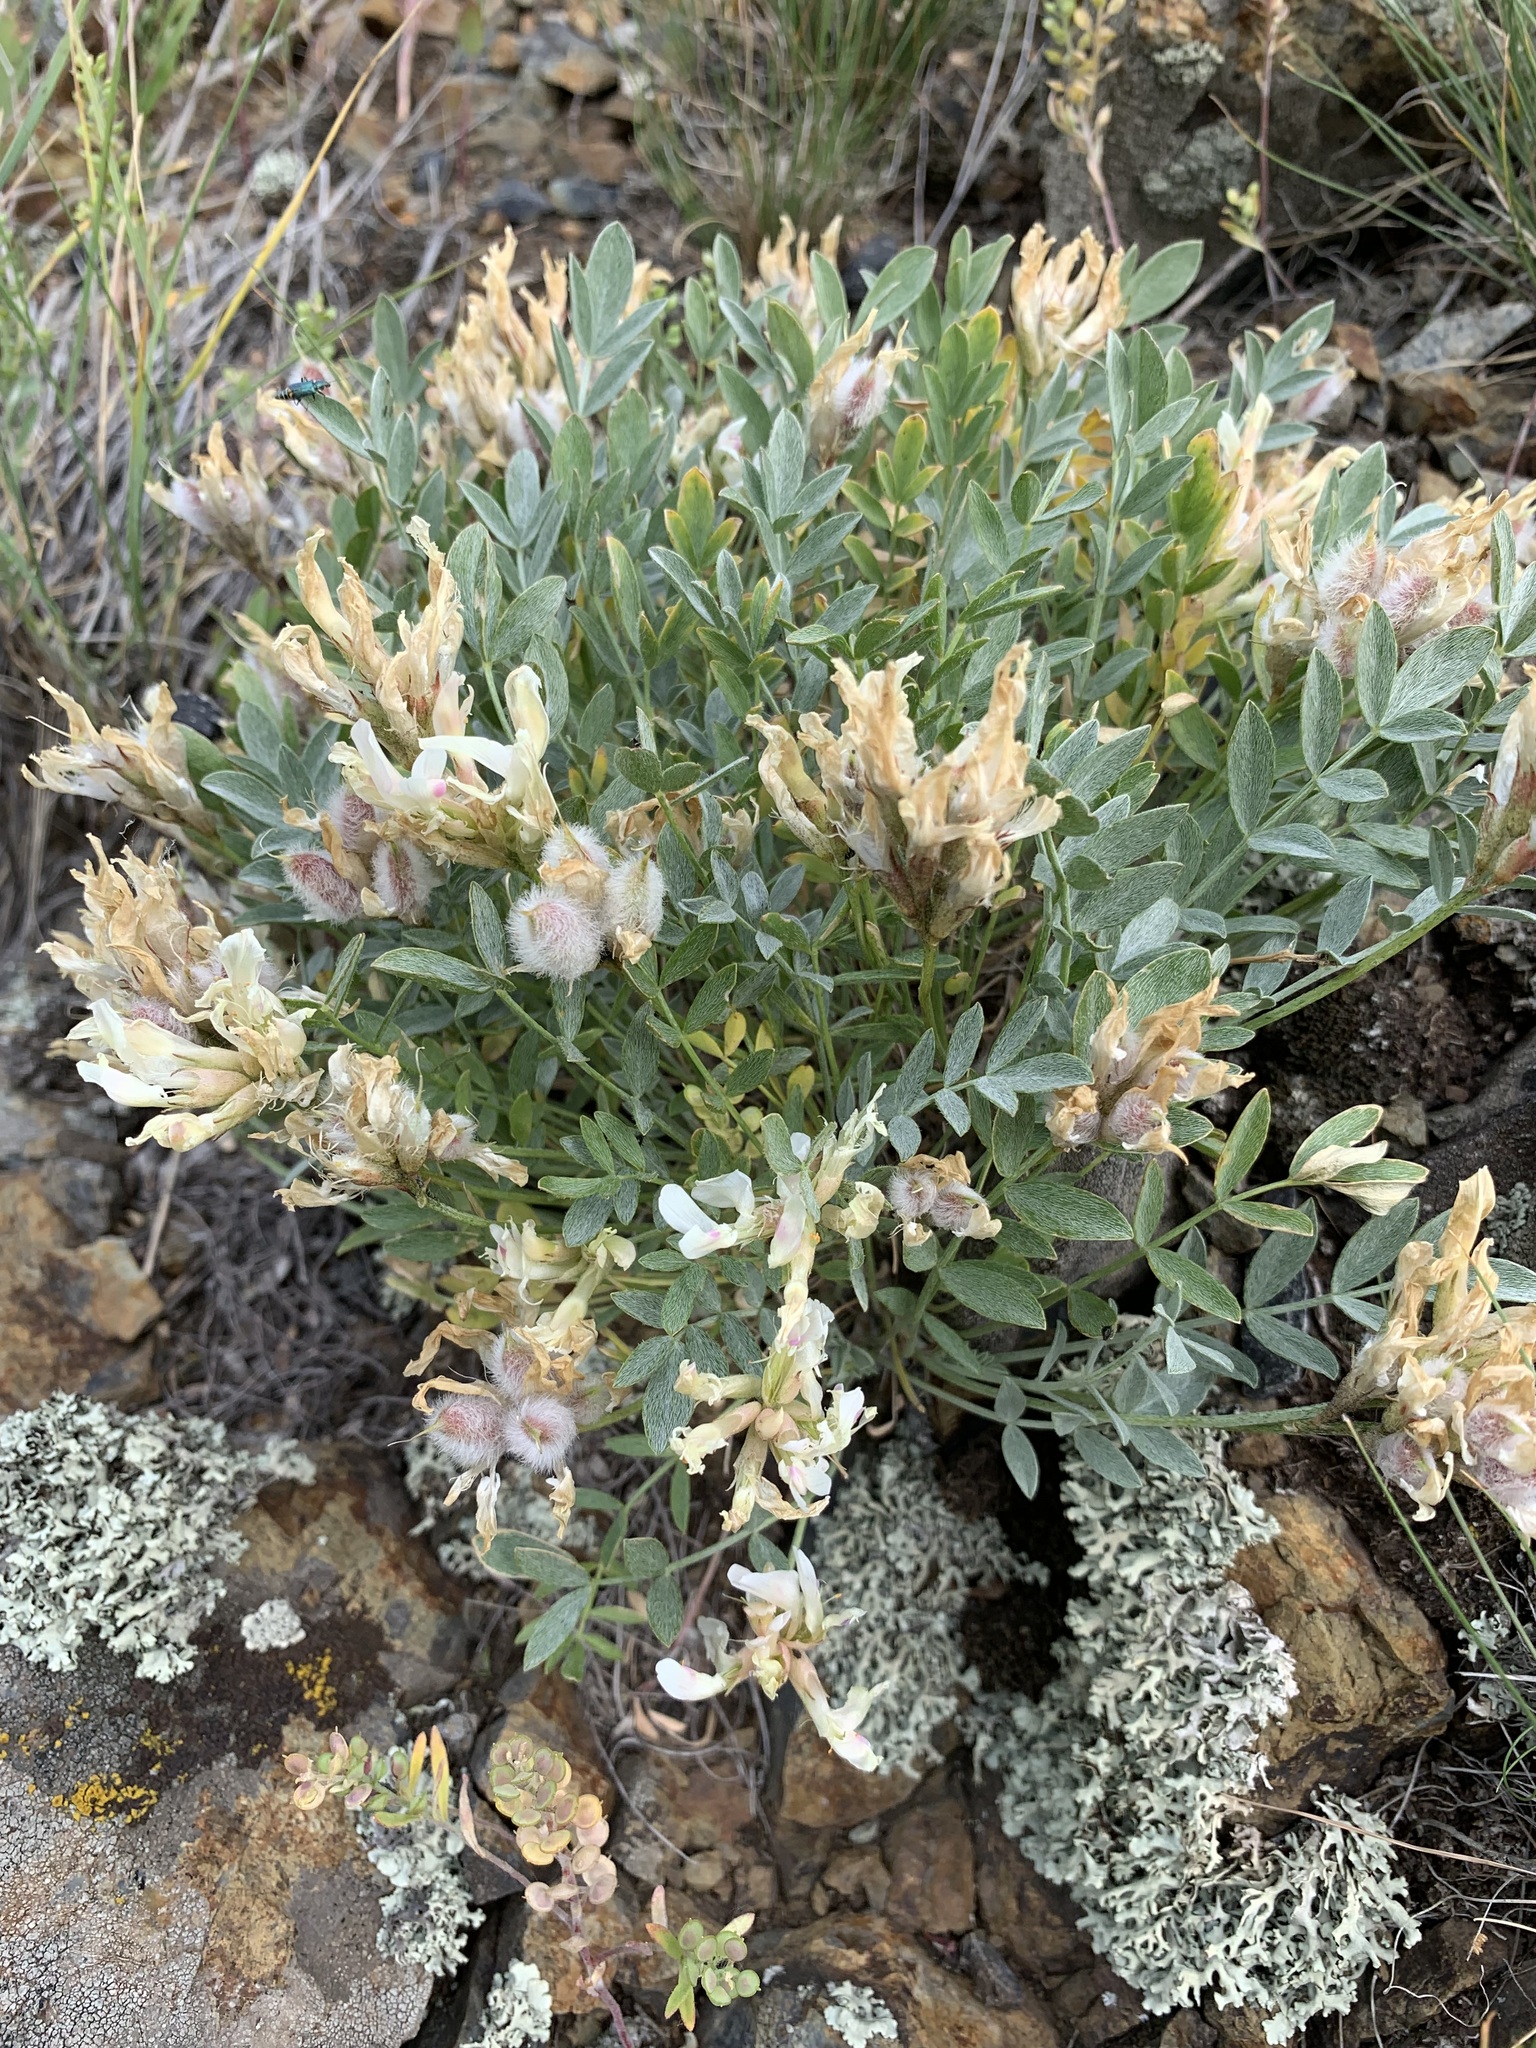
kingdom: Plantae
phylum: Tracheophyta
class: Magnoliopsida
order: Fabales
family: Fabaceae
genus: Astragalus
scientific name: Astragalus tergeminus
